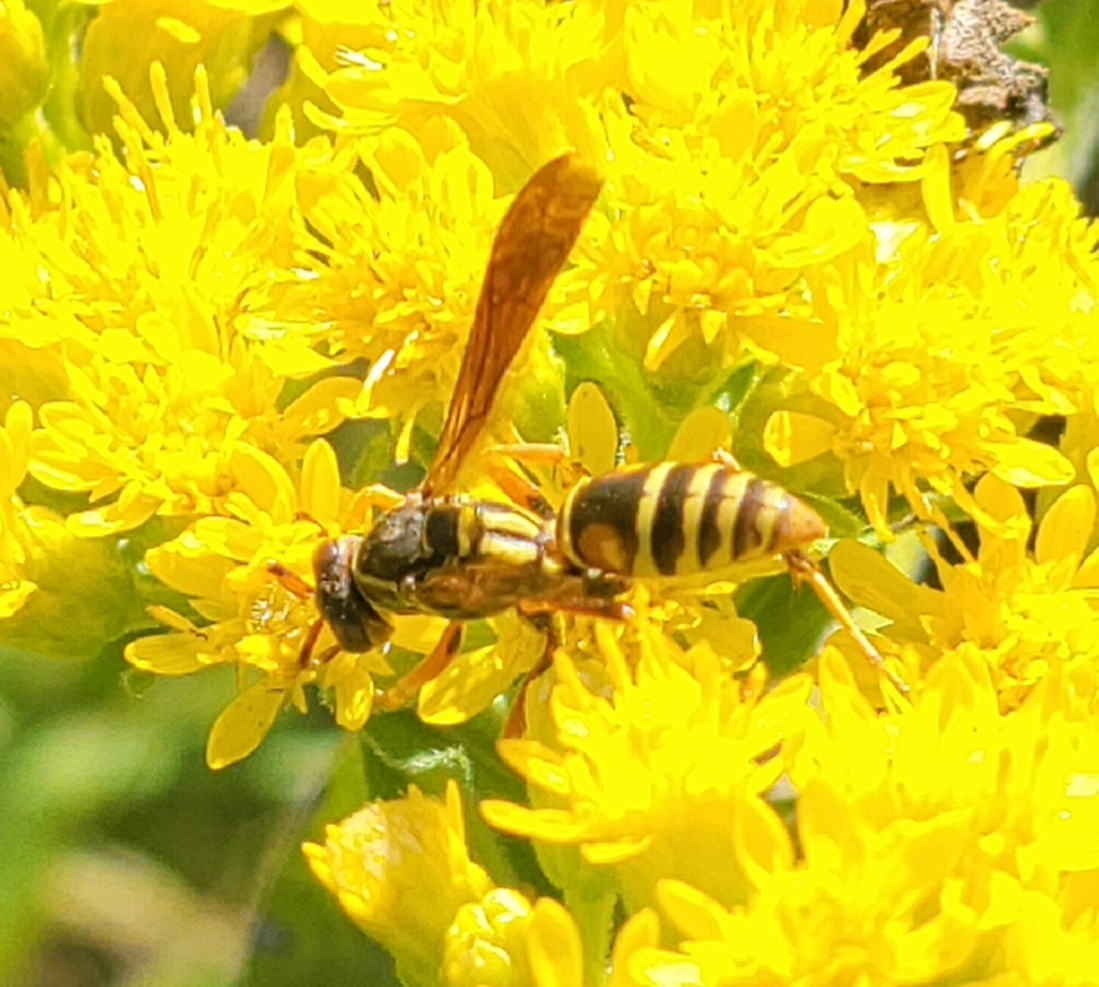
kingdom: Animalia
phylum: Arthropoda
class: Insecta
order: Hymenoptera
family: Eumenidae
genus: Polistes
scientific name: Polistes fuscatus
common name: Dark paper wasp
